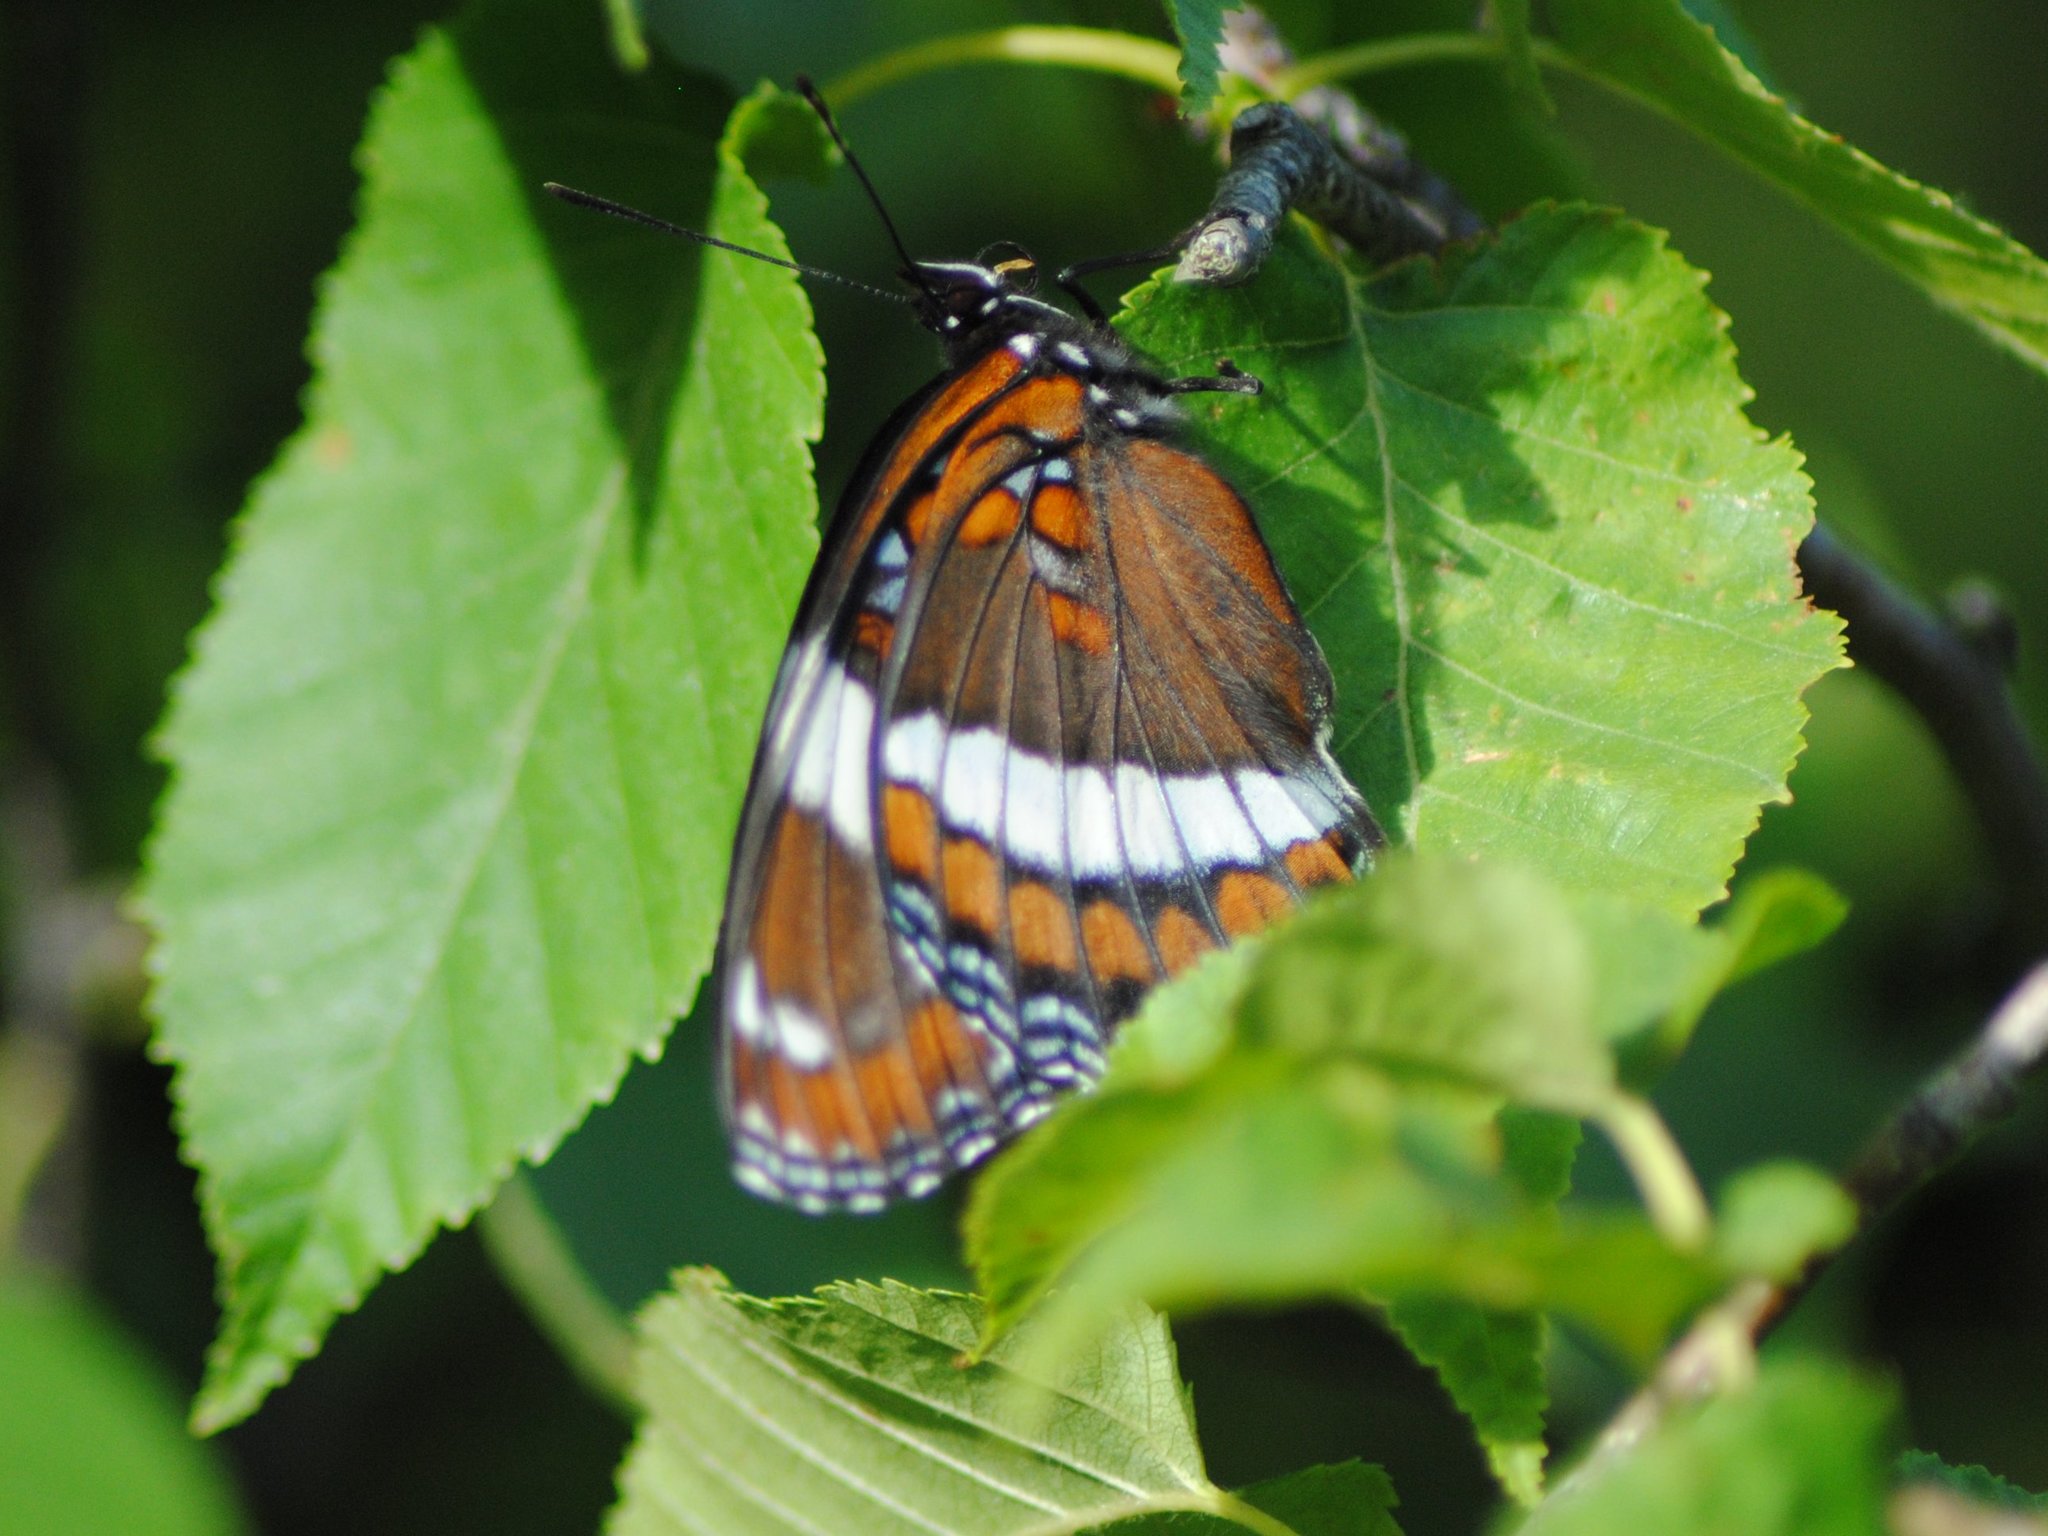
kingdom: Animalia
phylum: Arthropoda
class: Insecta
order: Lepidoptera
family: Nymphalidae
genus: Limenitis
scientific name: Limenitis arthemis
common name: Red-spotted admiral
